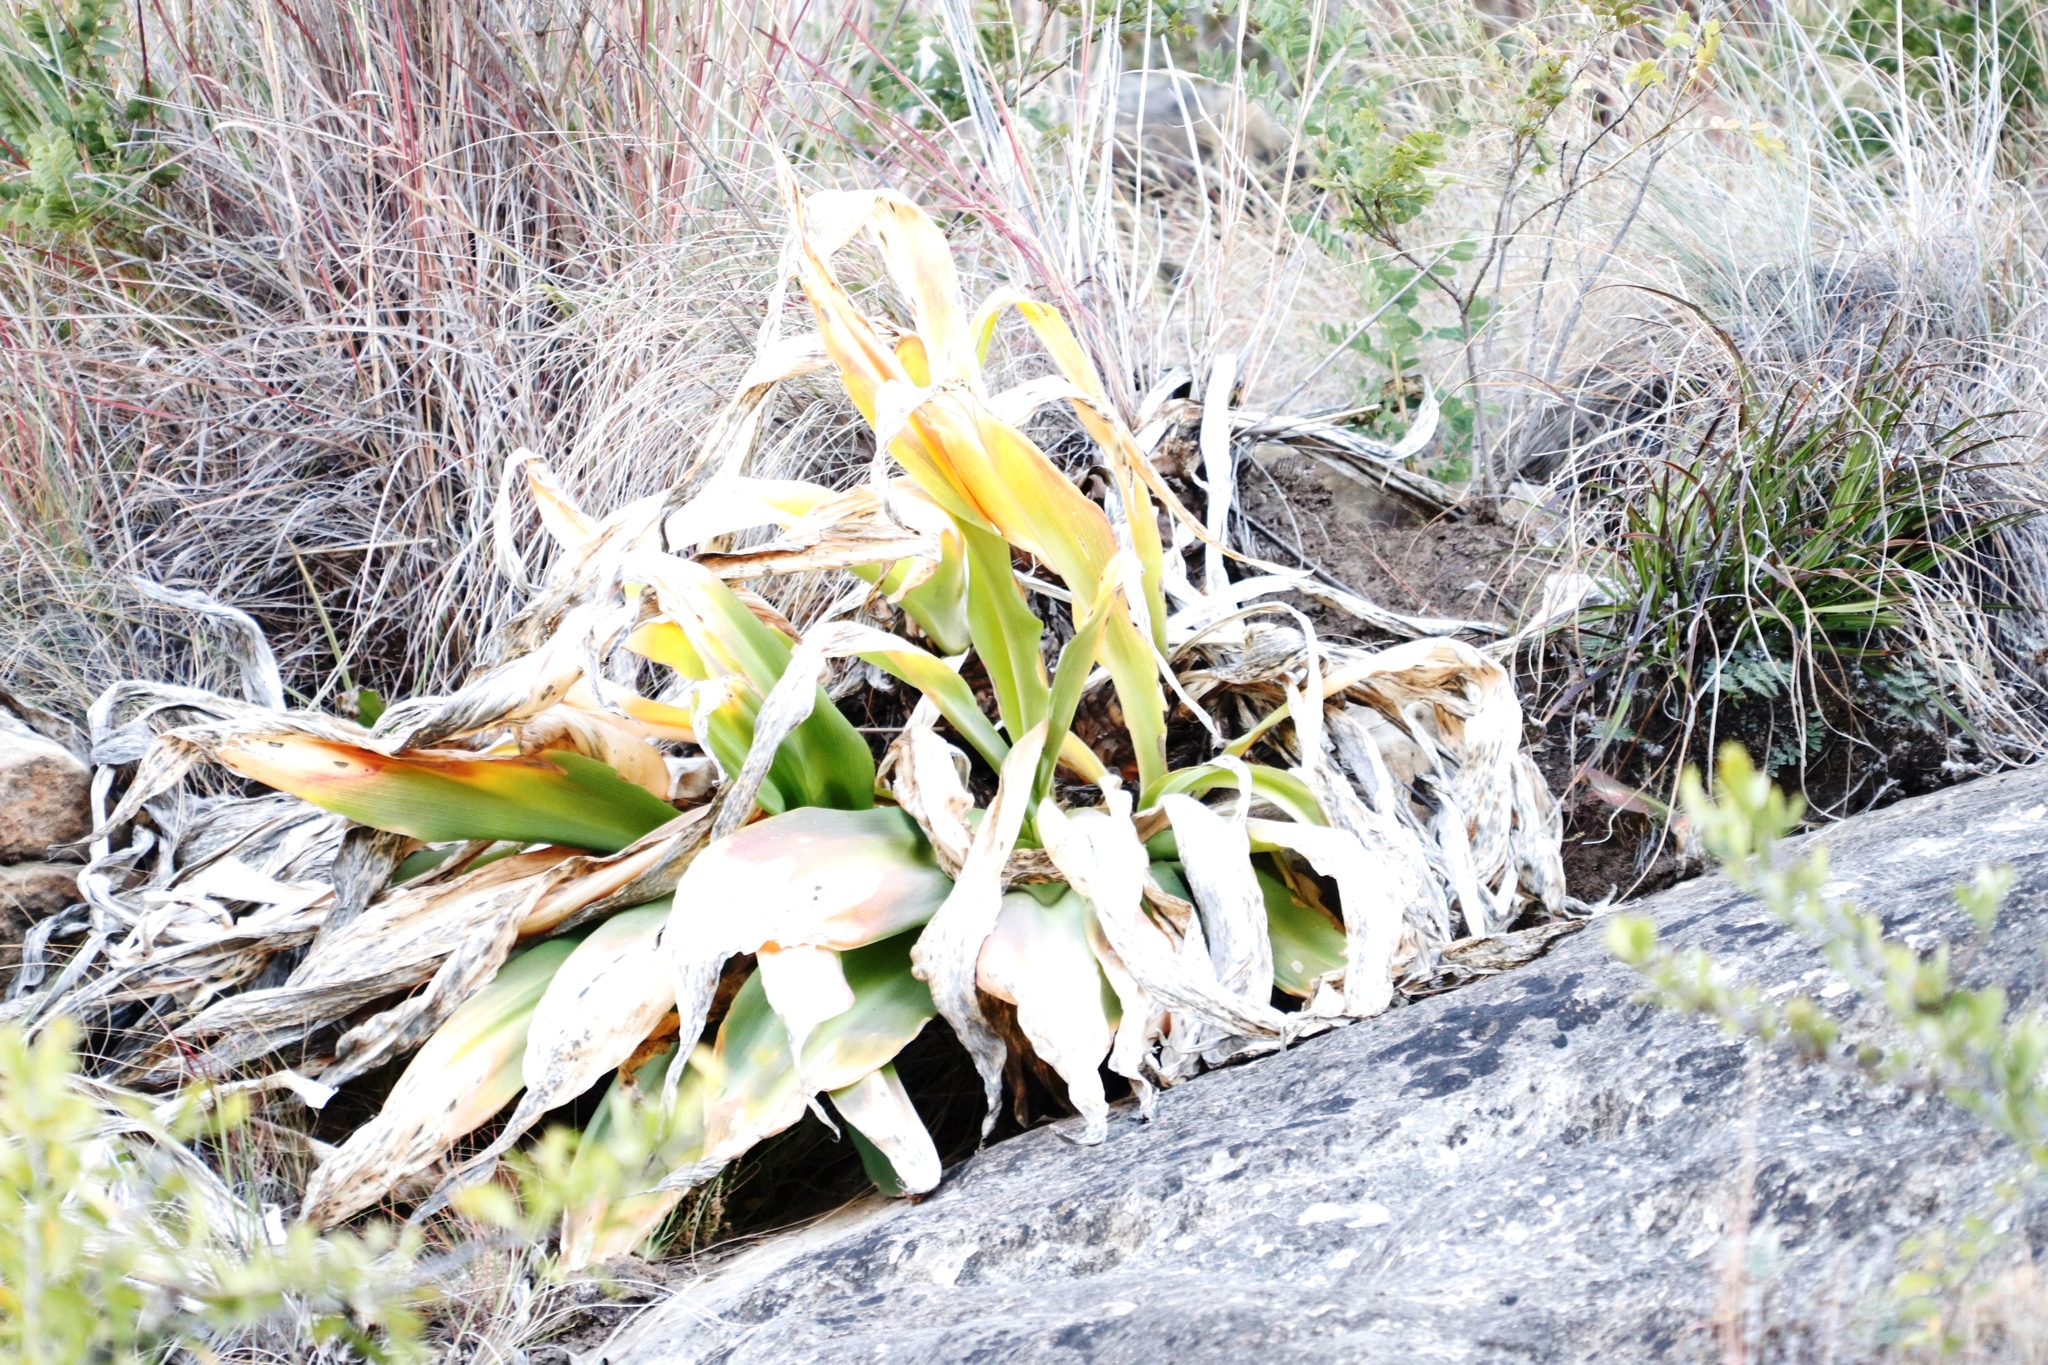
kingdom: Plantae
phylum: Tracheophyta
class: Liliopsida
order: Asparagales
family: Asparagaceae
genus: Merwilla
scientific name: Merwilla plumbea
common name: Blue-squill
